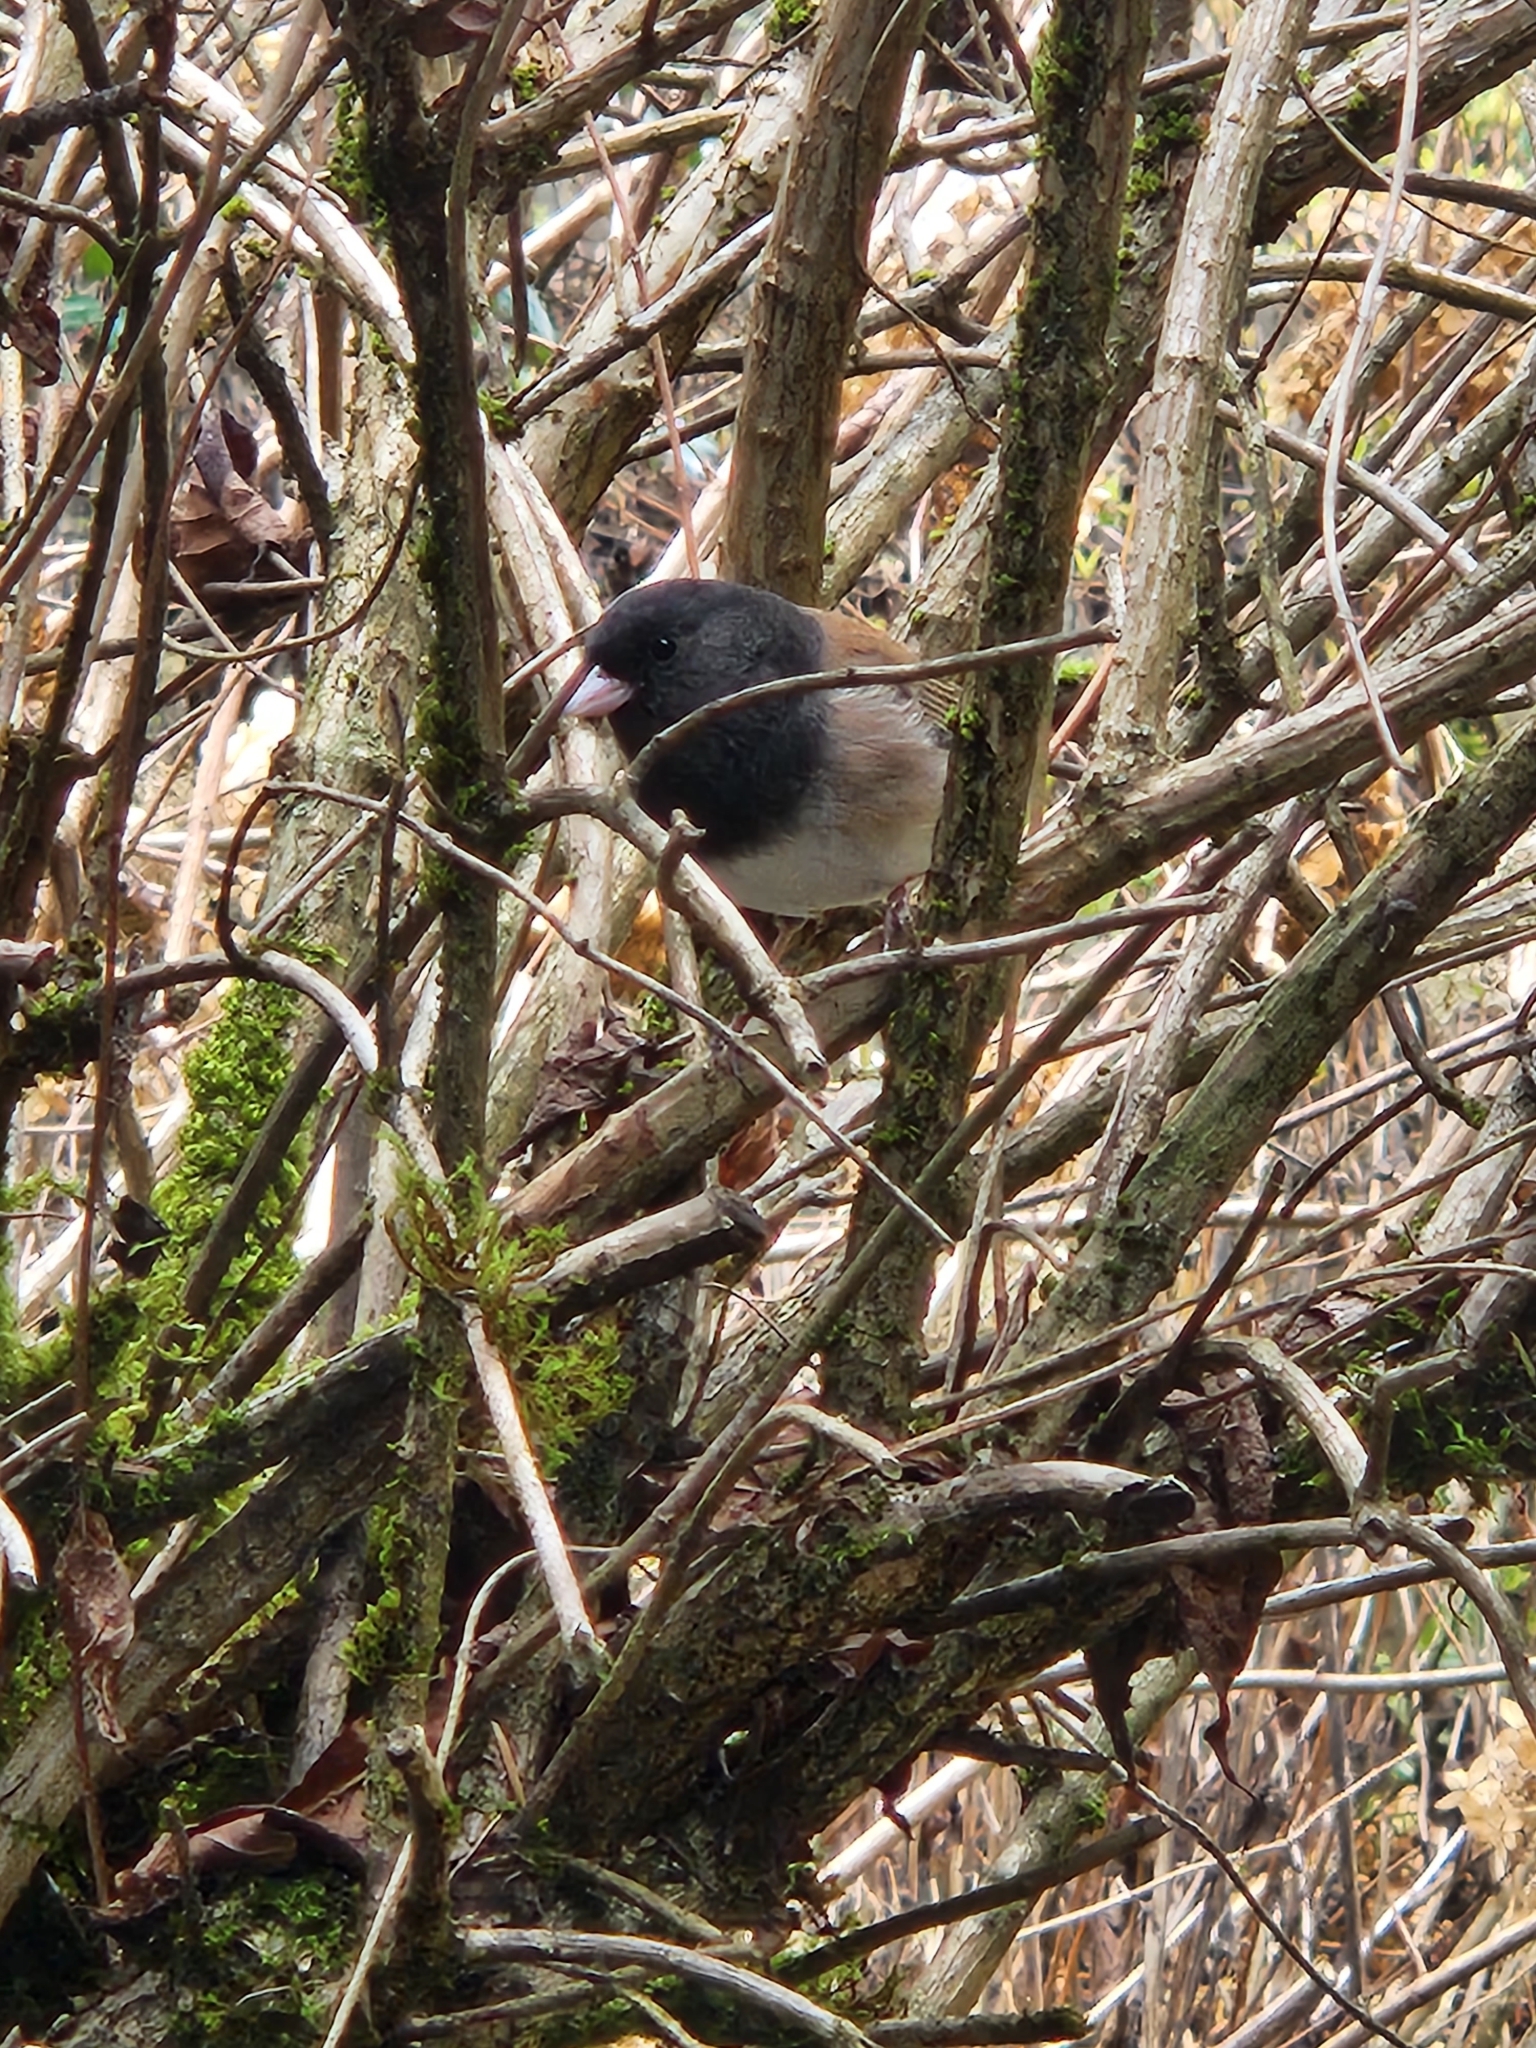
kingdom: Animalia
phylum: Chordata
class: Aves
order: Passeriformes
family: Passerellidae
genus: Junco
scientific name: Junco hyemalis
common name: Dark-eyed junco
